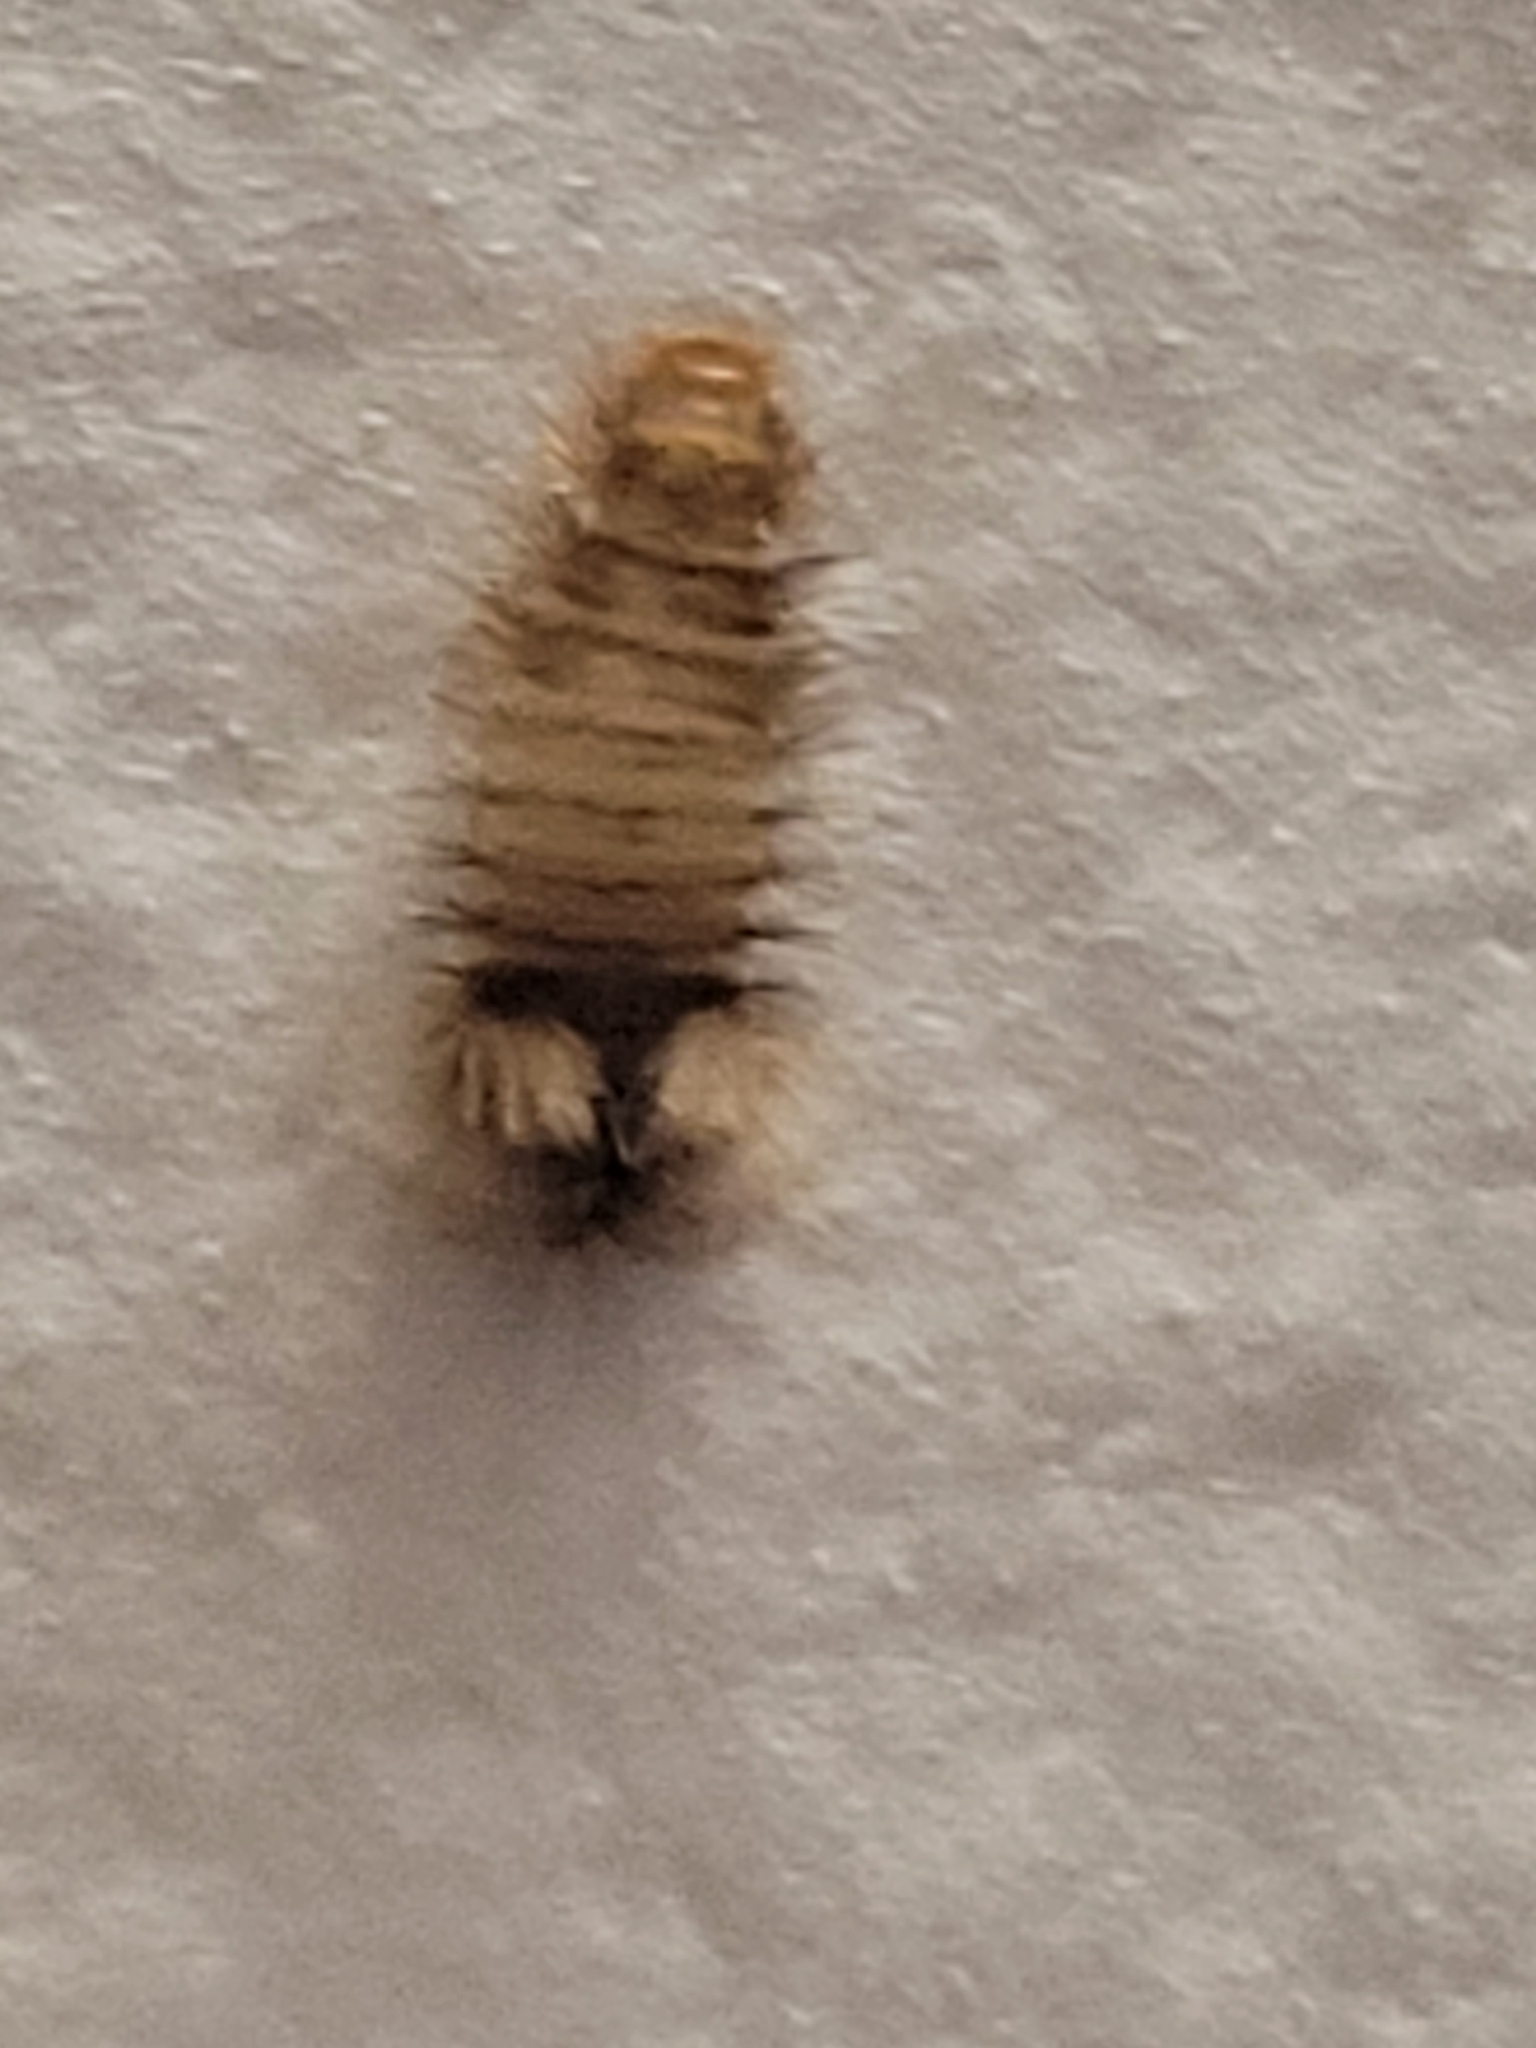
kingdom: Animalia
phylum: Arthropoda
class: Insecta
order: Coleoptera
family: Dermestidae
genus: Anthrenus
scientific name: Anthrenus verbasci
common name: Varied carpet beetle
